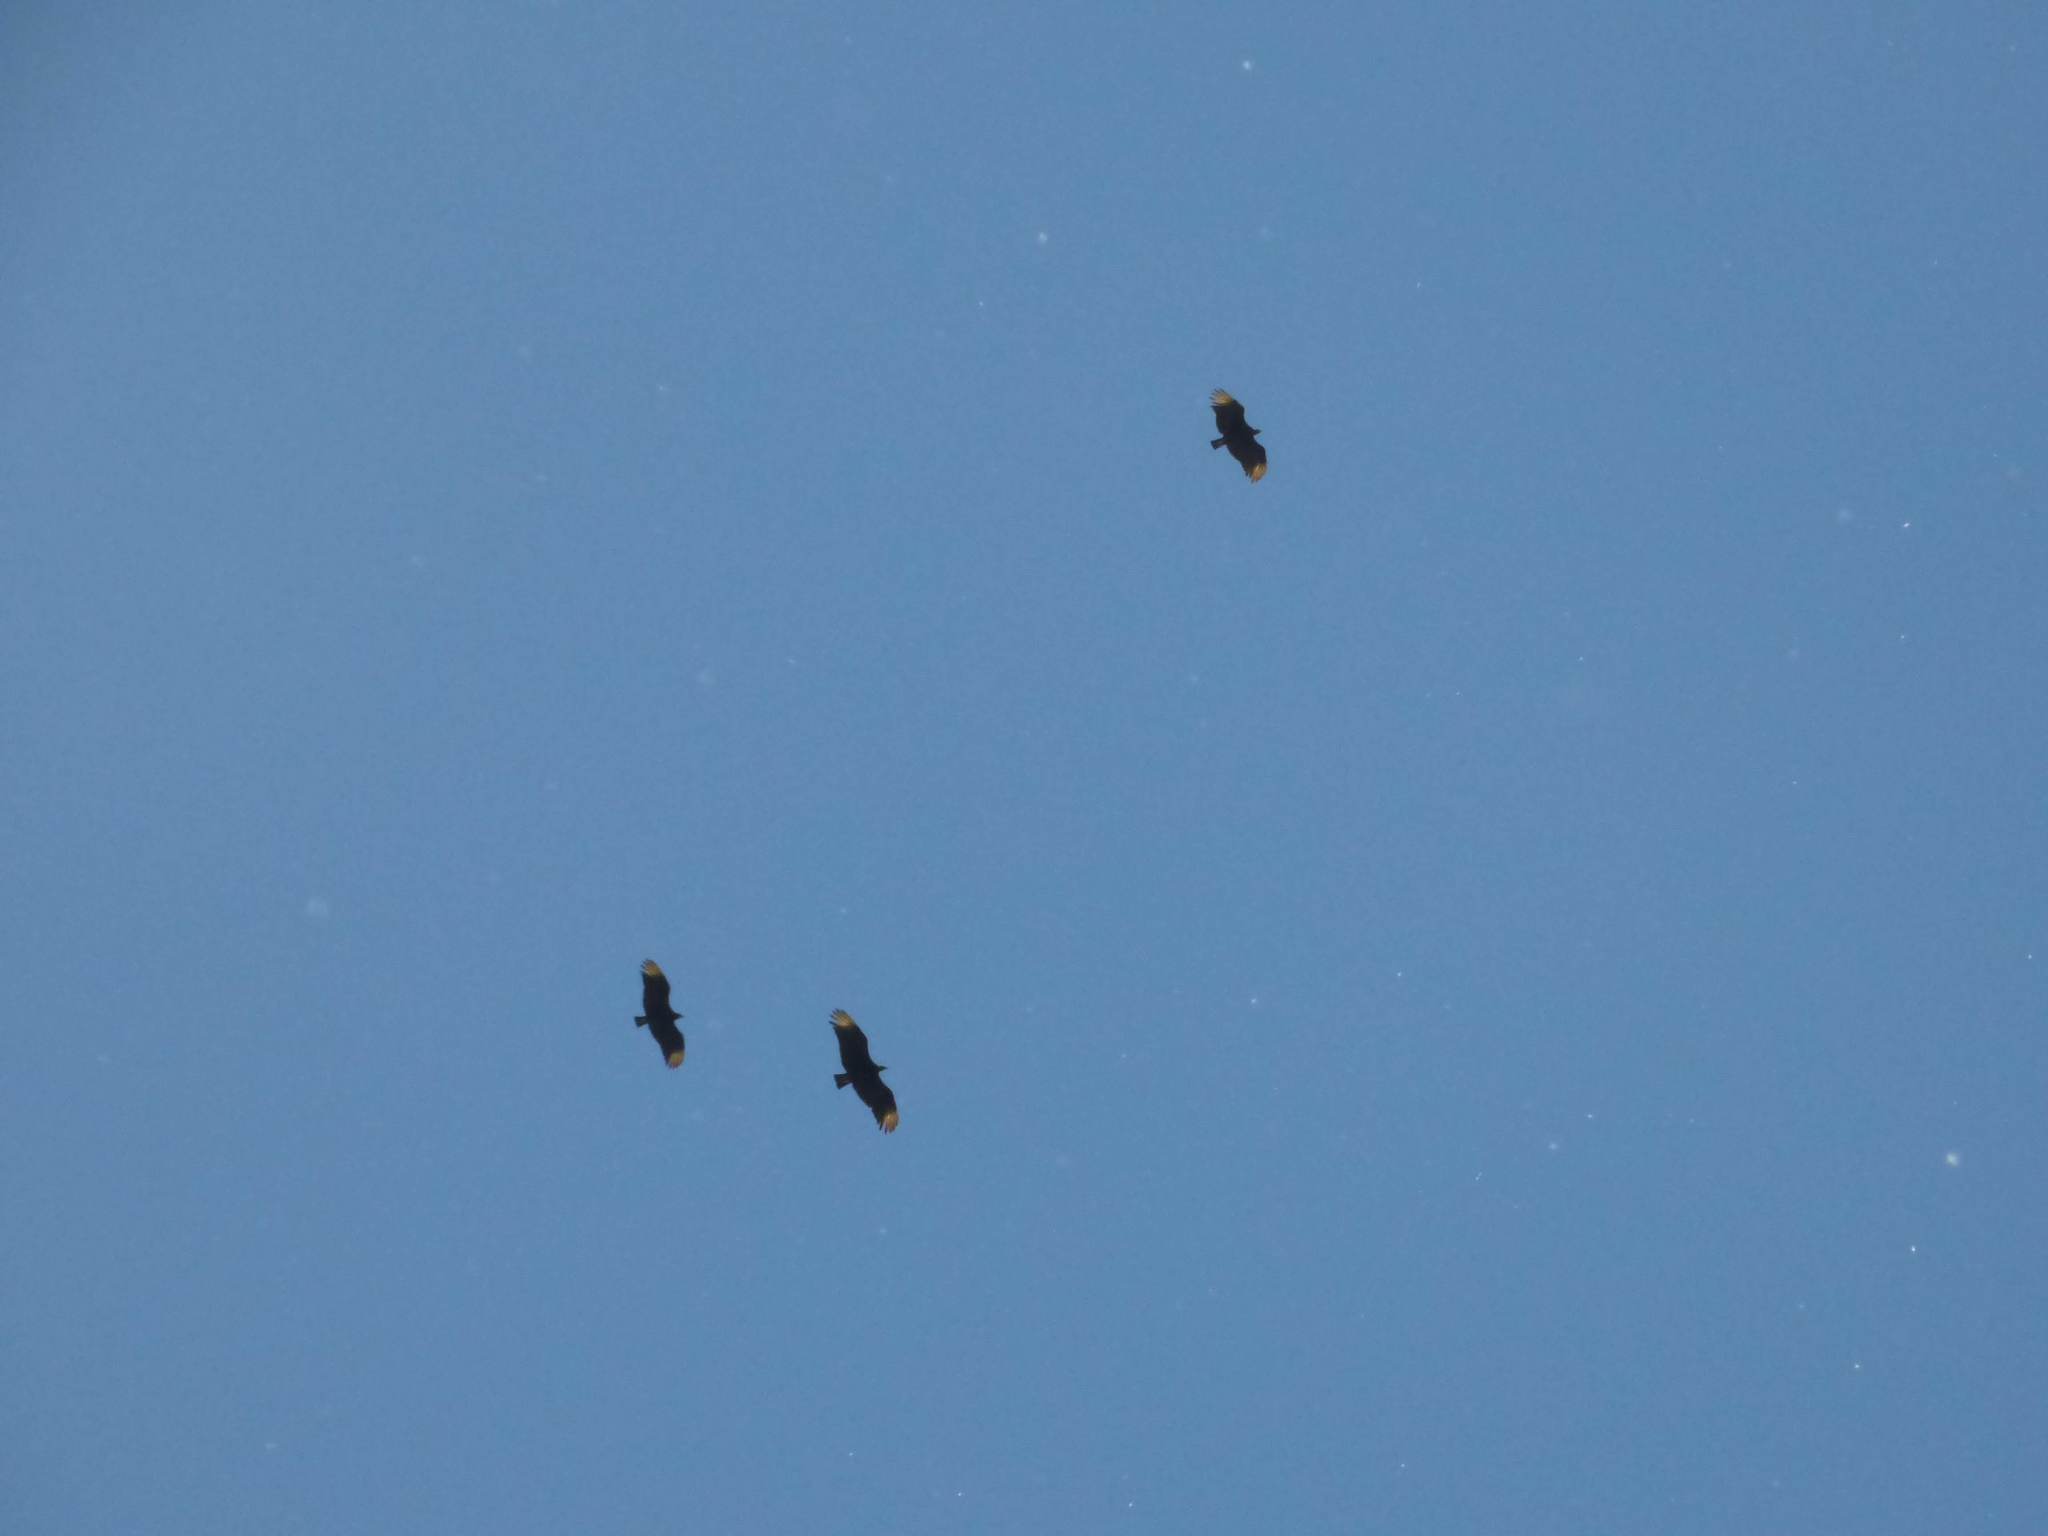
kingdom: Animalia
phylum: Chordata
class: Aves
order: Accipitriformes
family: Cathartidae
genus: Coragyps
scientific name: Coragyps atratus
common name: Black vulture
